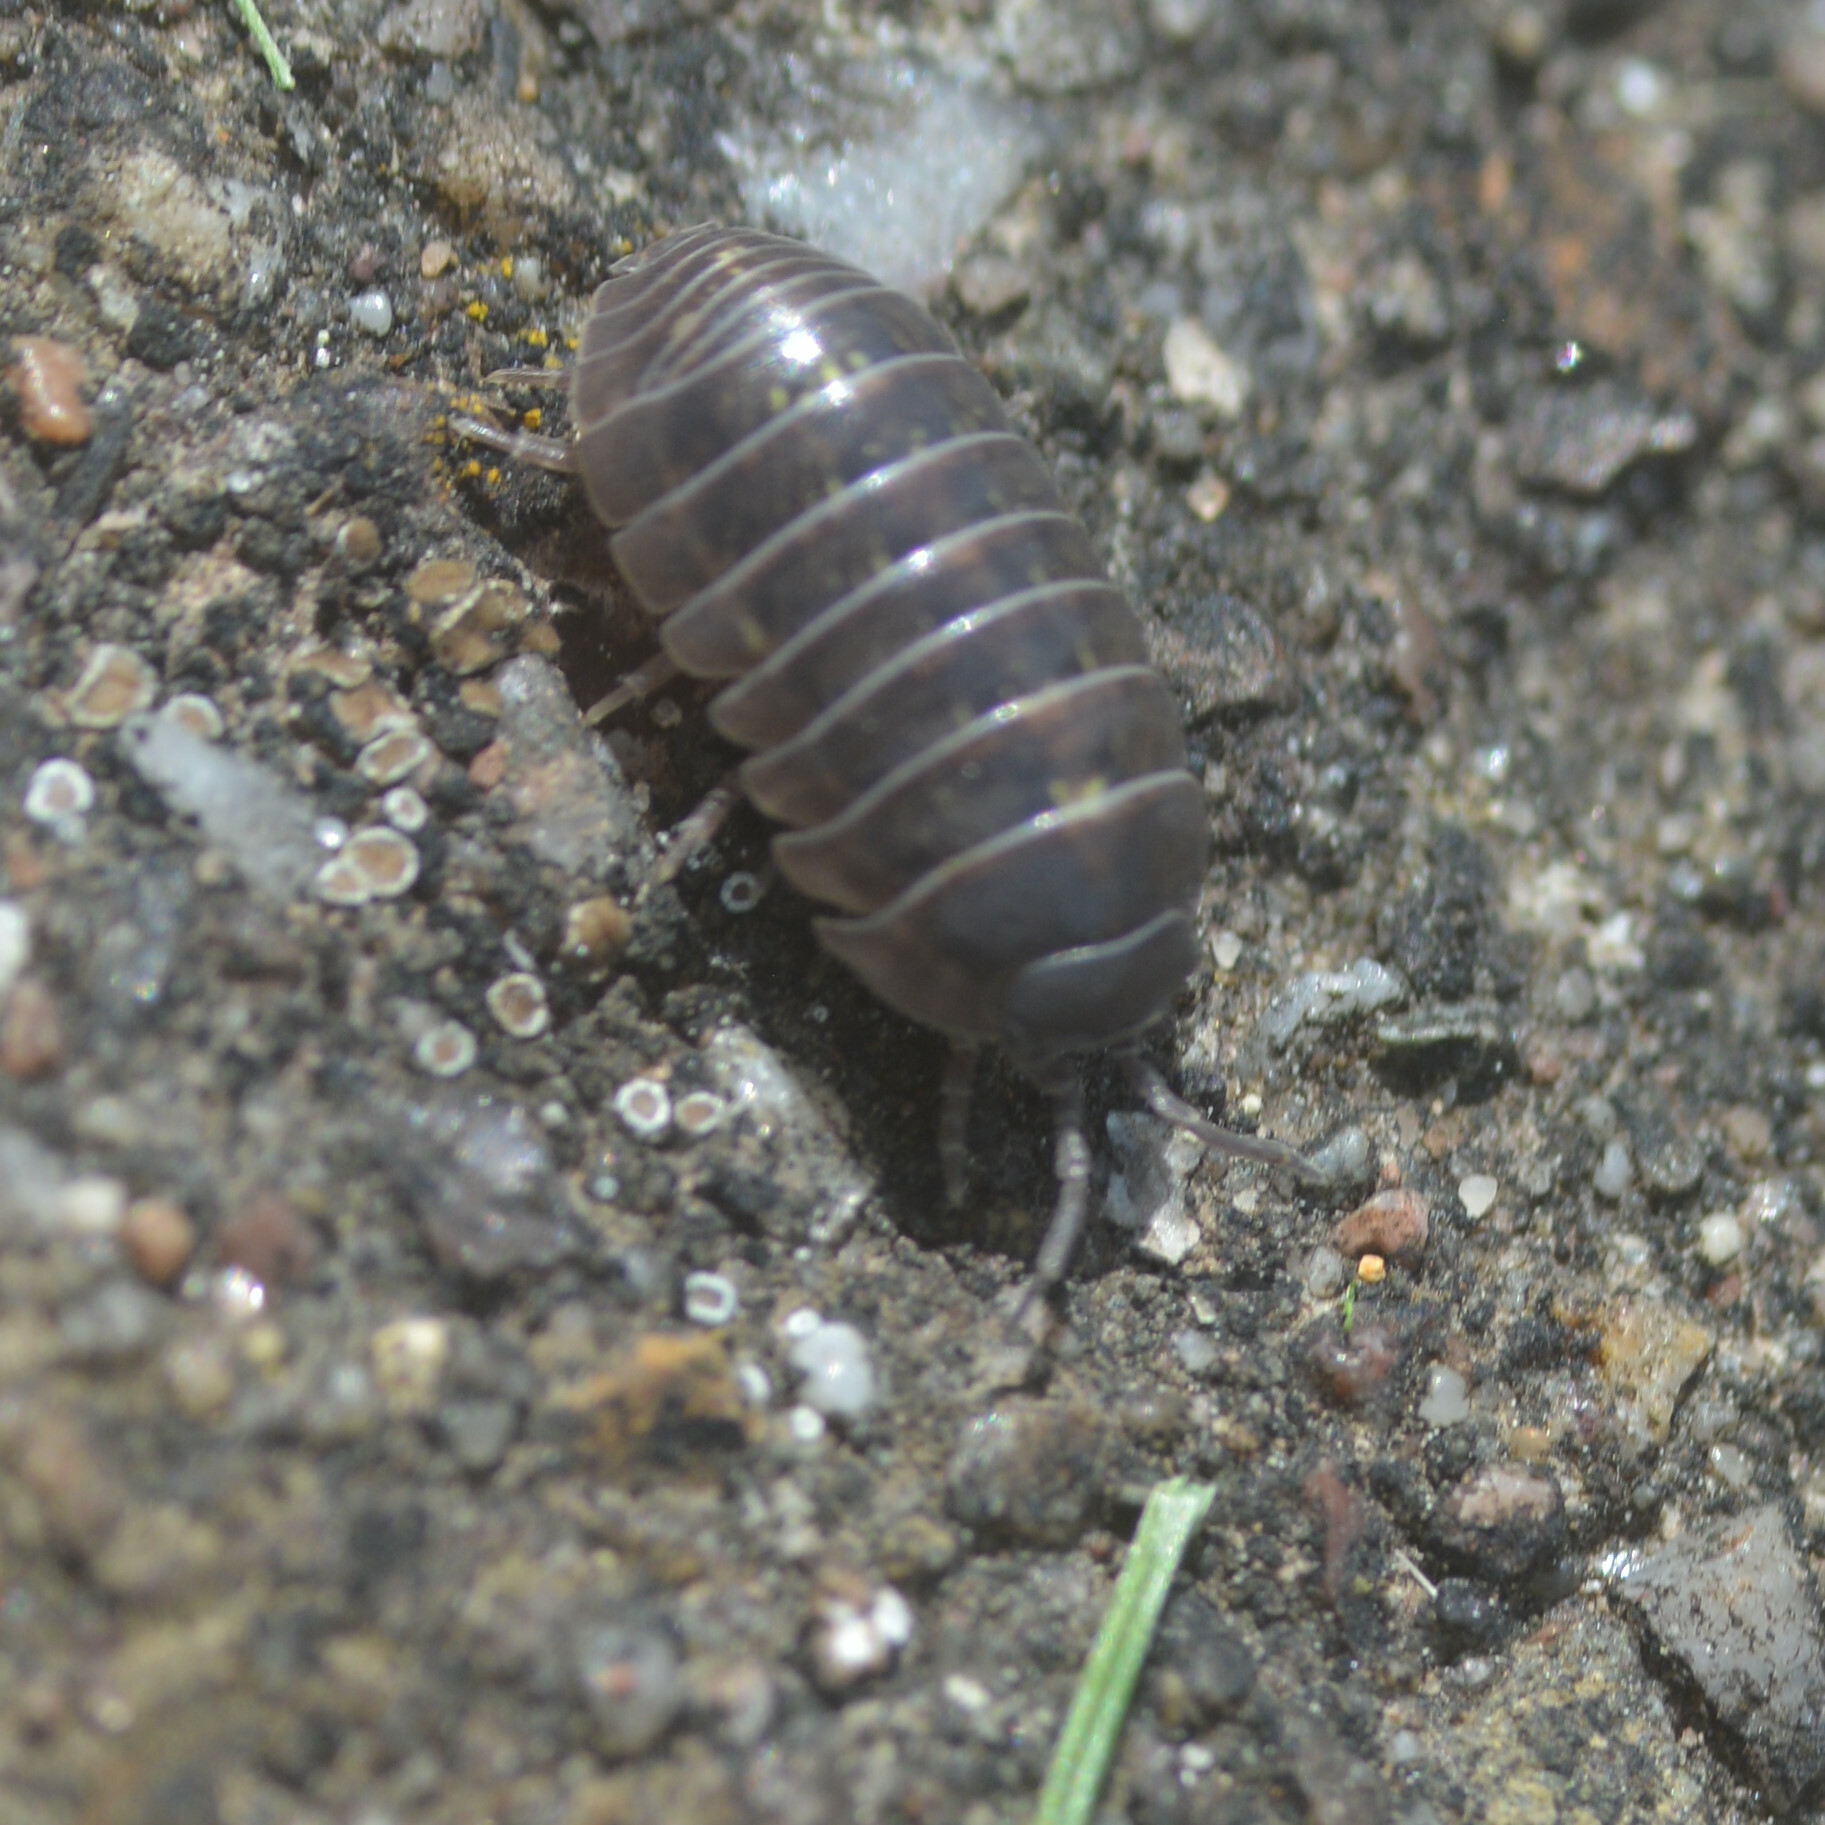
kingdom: Animalia
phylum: Arthropoda
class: Malacostraca
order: Isopoda
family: Armadillidiidae
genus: Armadillidium
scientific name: Armadillidium vulgare
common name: Common pill woodlouse
